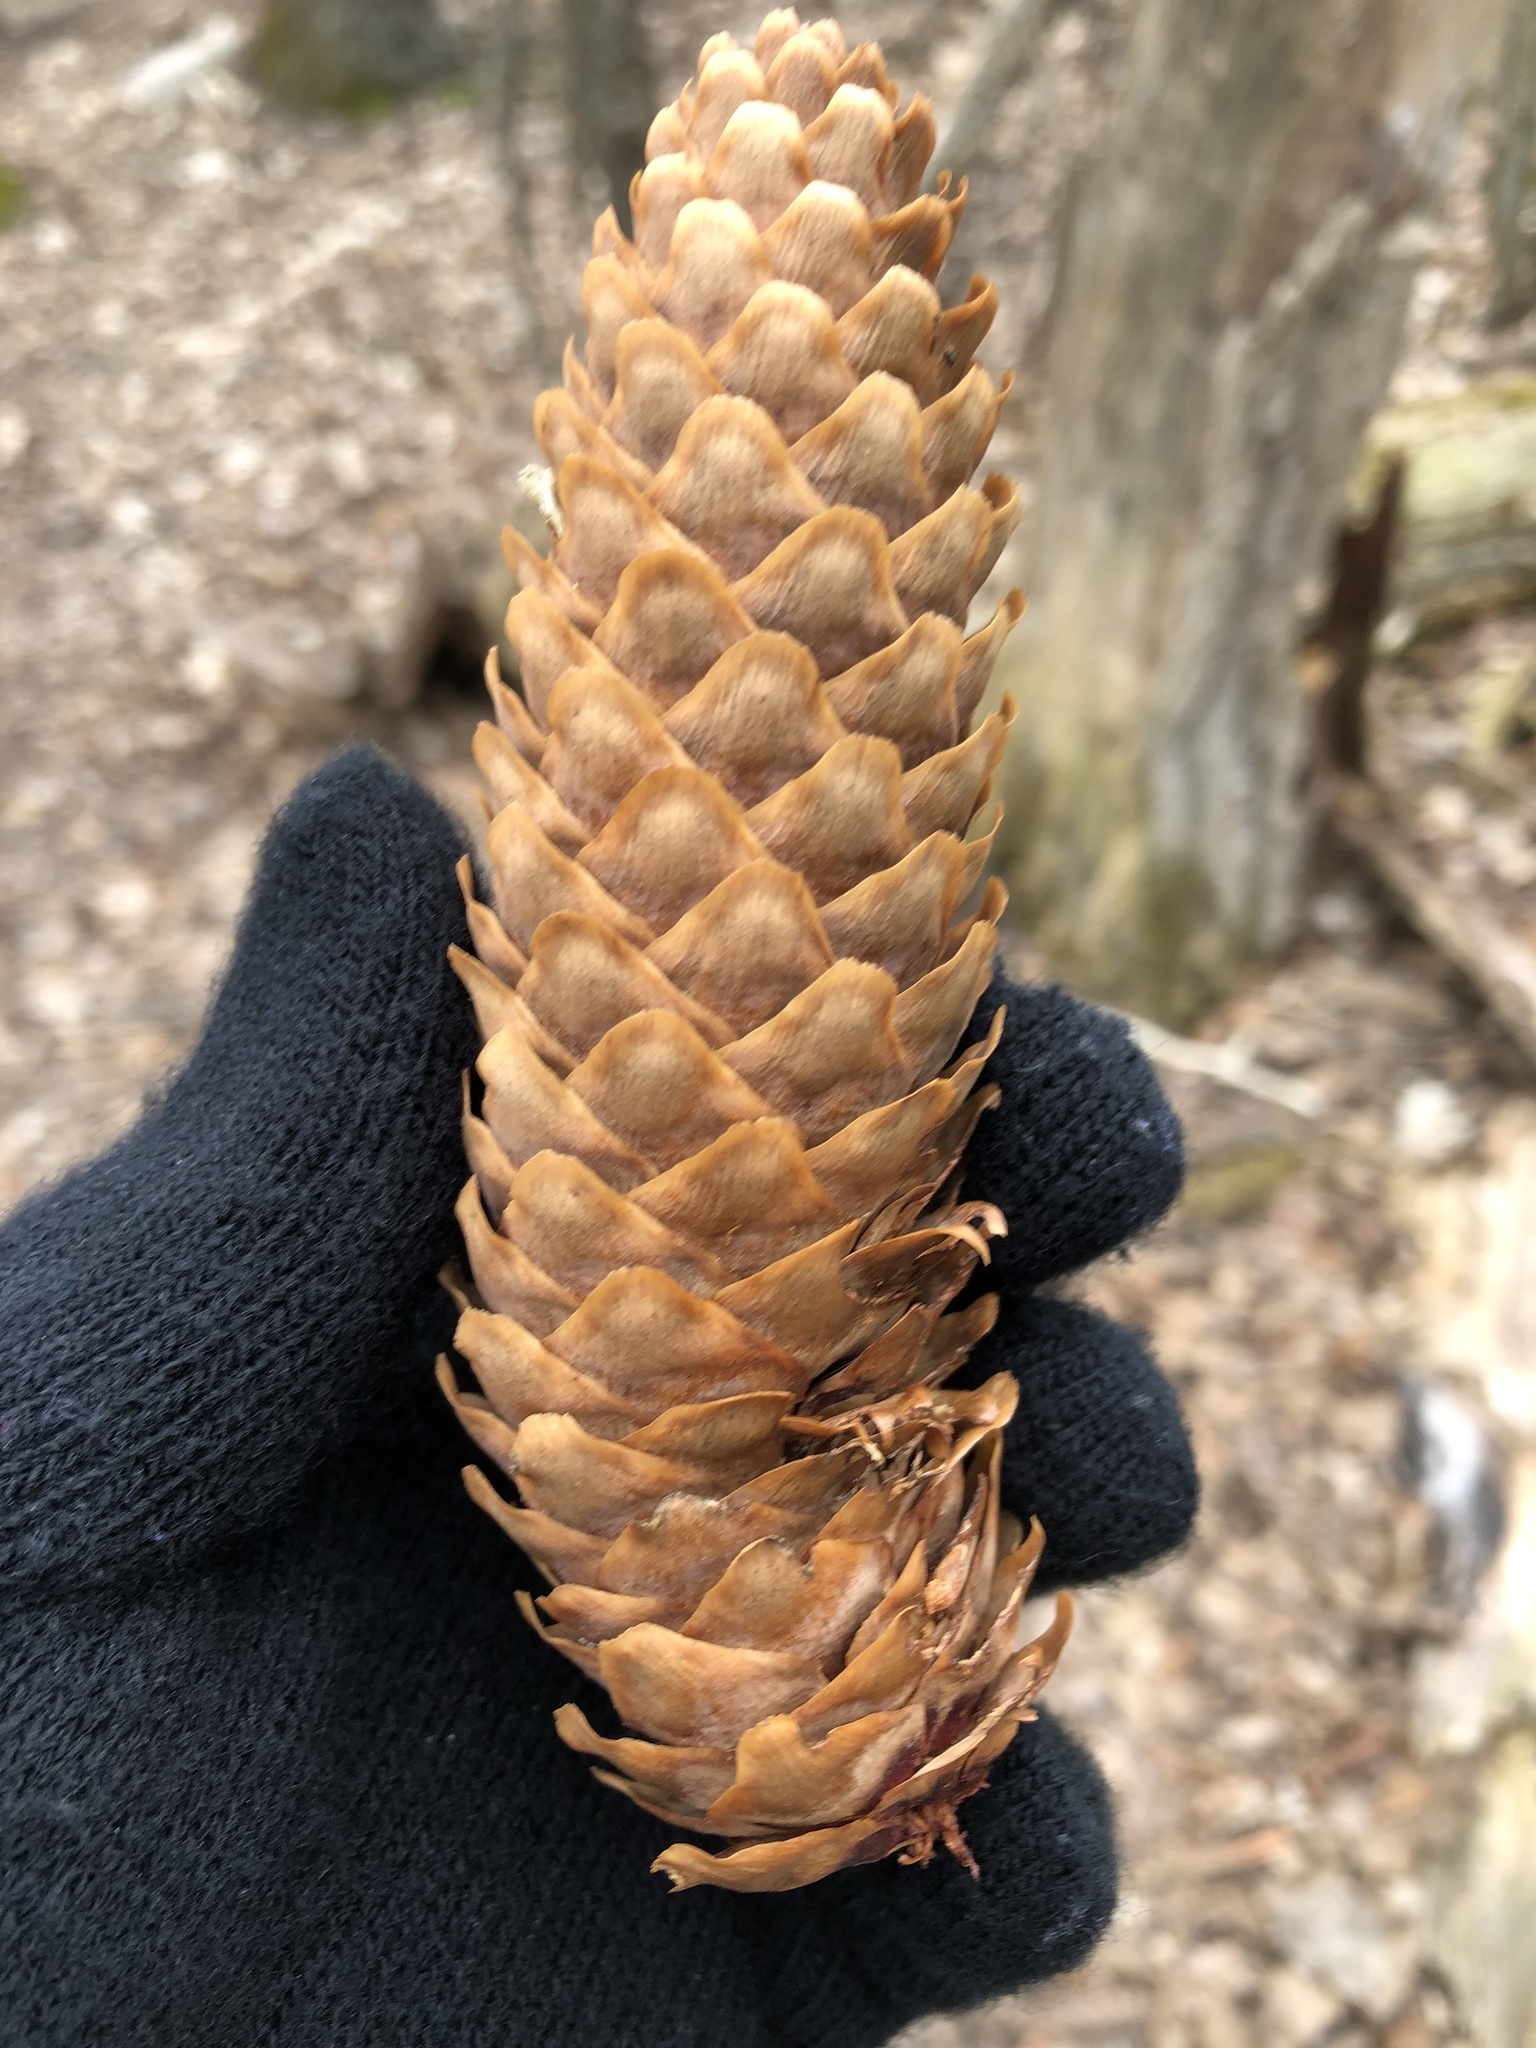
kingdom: Plantae
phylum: Tracheophyta
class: Pinopsida
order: Pinales
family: Pinaceae
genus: Picea
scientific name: Picea abies
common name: Norway spruce
